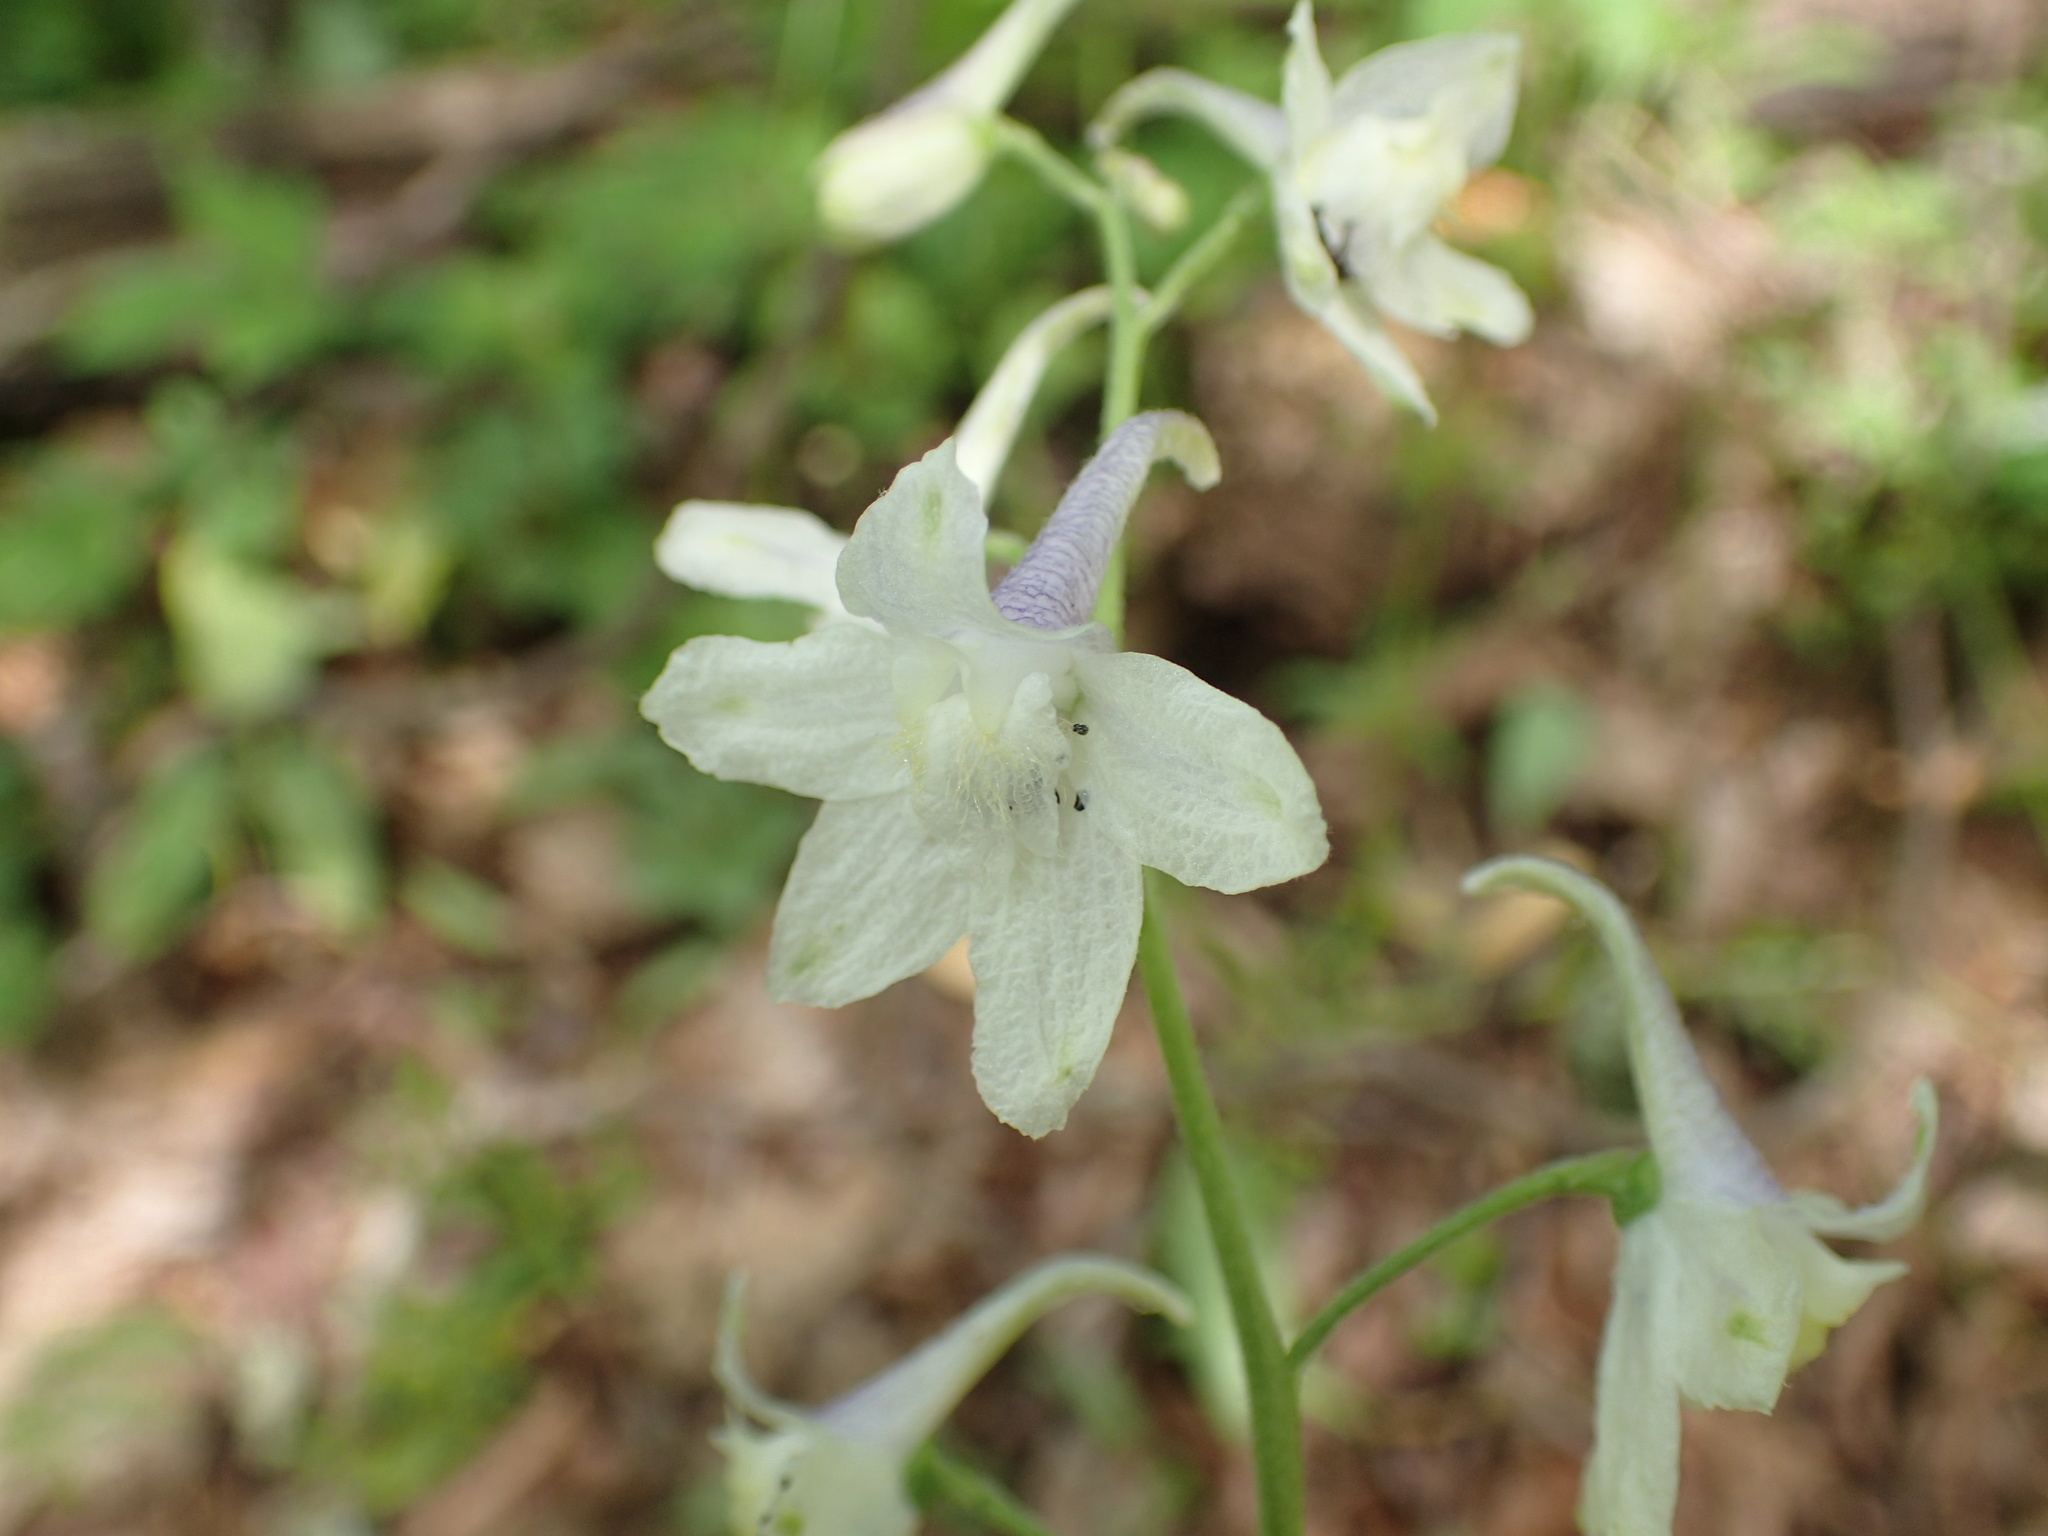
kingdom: Plantae
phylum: Tracheophyta
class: Magnoliopsida
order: Ranunculales
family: Ranunculaceae
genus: Delphinium
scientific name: Delphinium tricorne
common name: Dwarf larkspur
